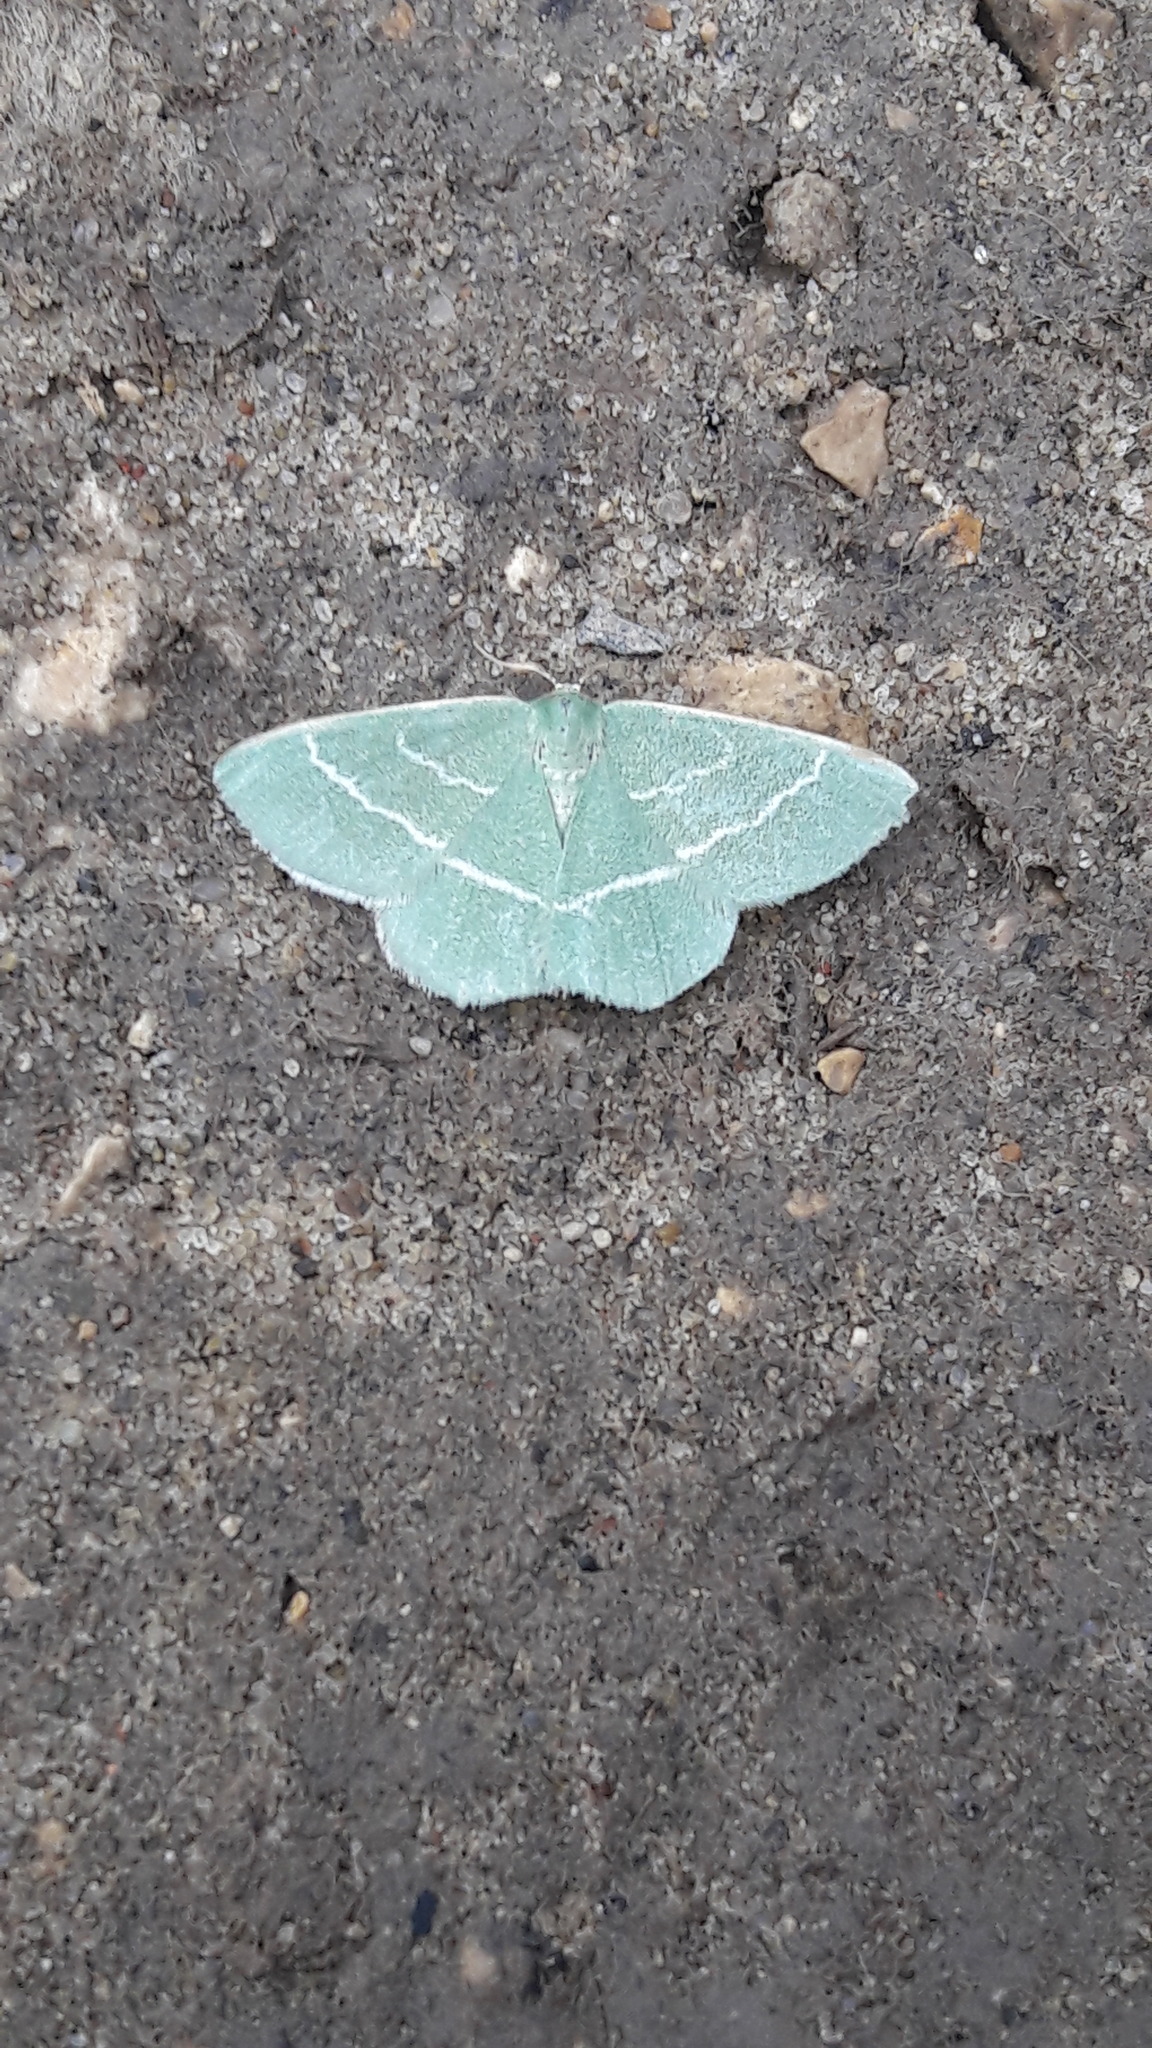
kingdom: Animalia
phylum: Arthropoda
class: Insecta
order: Lepidoptera
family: Geometridae
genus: Chlorissa
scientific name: Chlorissa viridata
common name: Small grass emerald
